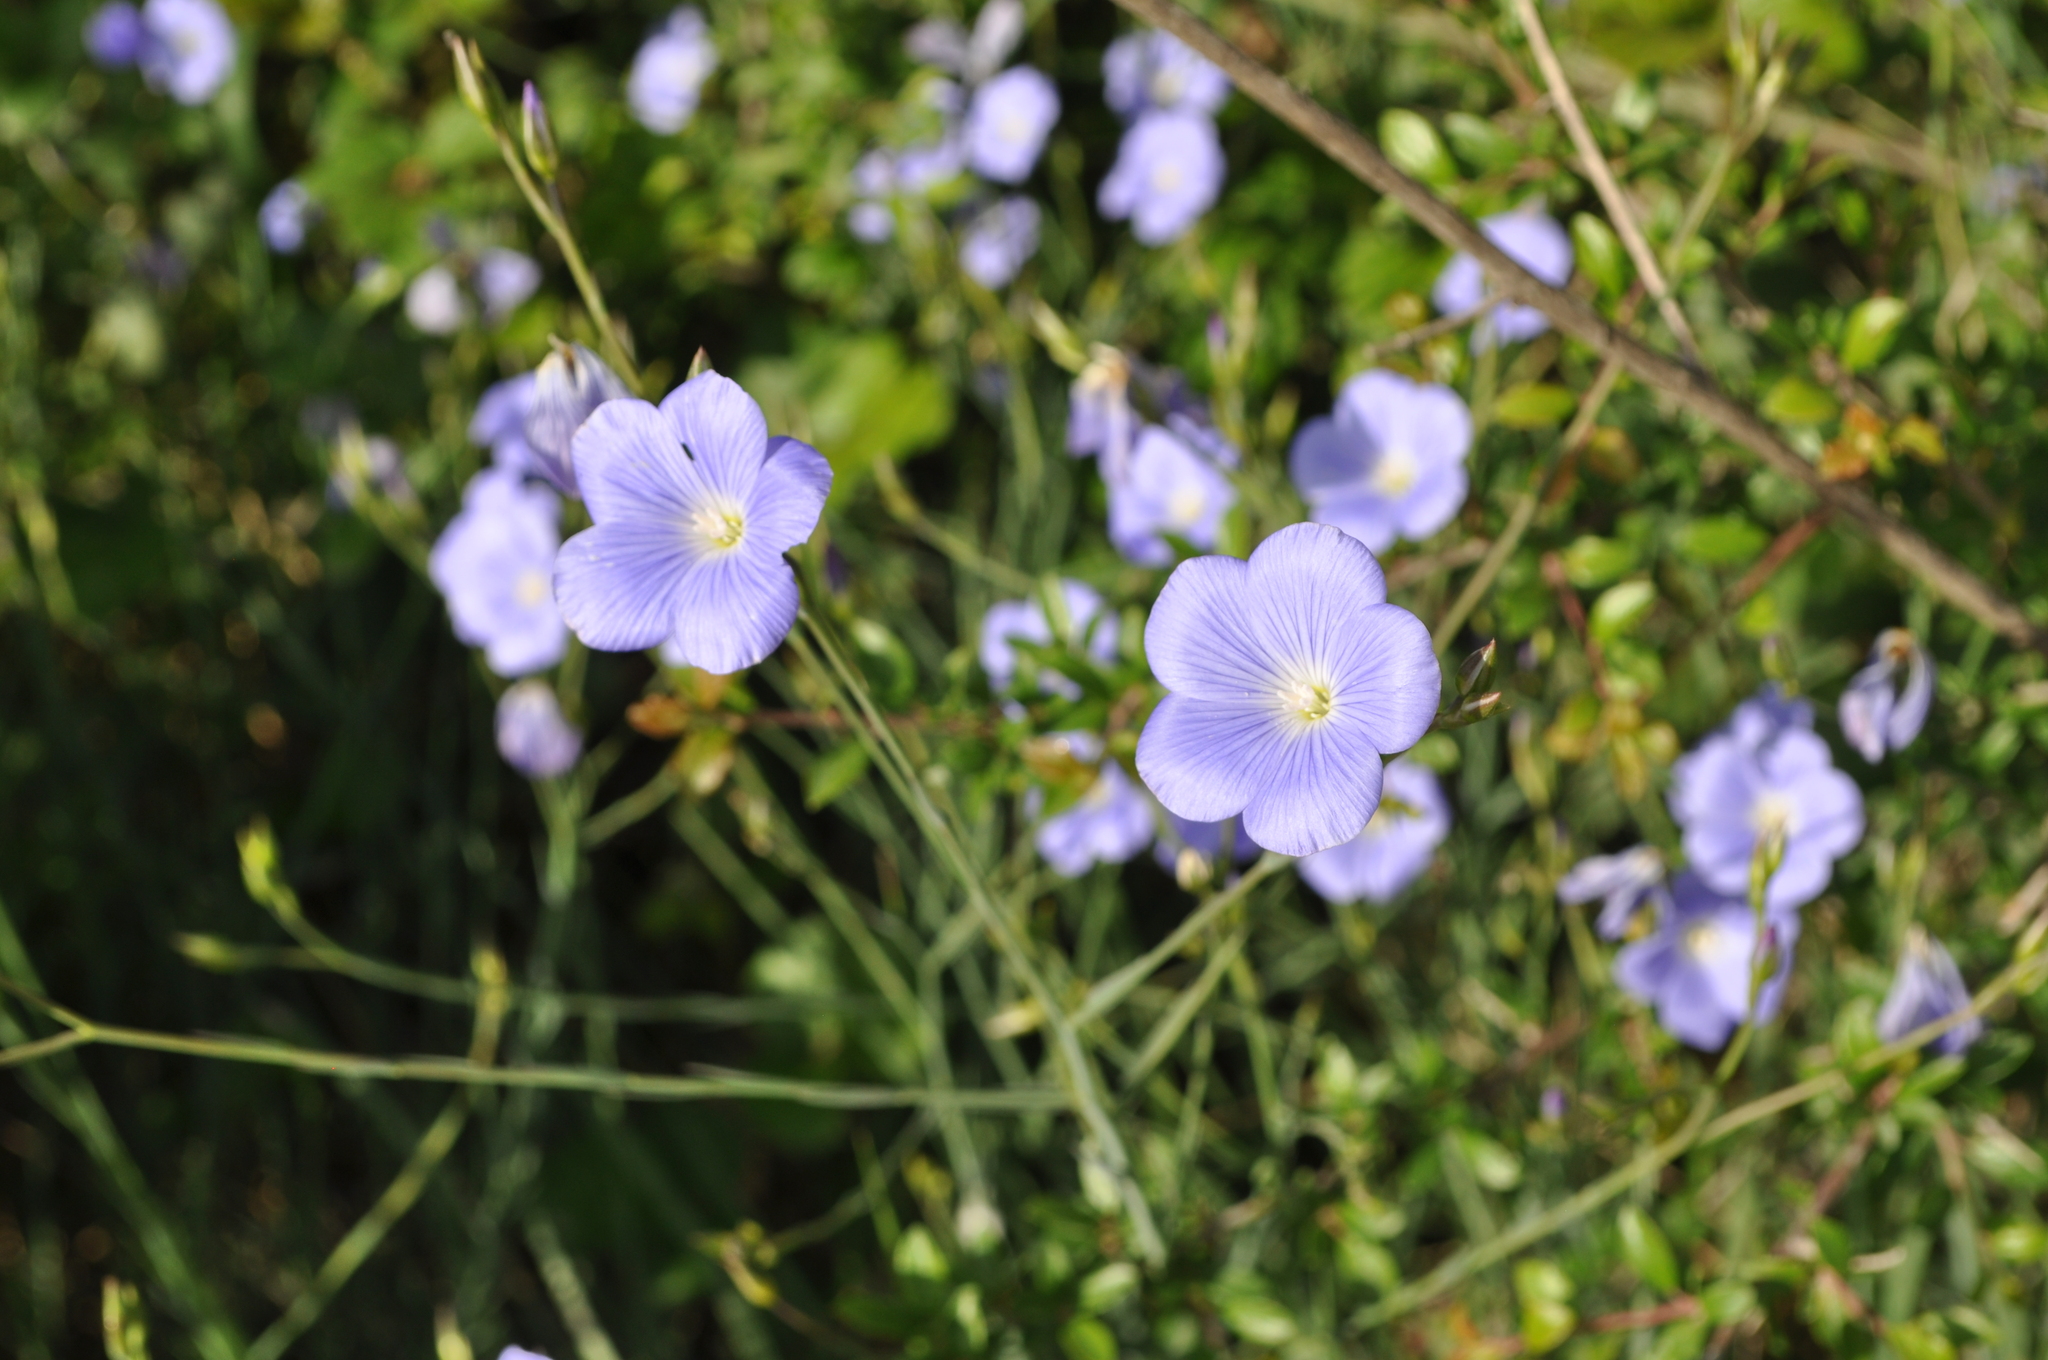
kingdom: Plantae
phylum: Tracheophyta
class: Magnoliopsida
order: Malpighiales
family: Linaceae
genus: Linum
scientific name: Linum narbonense
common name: Flax
